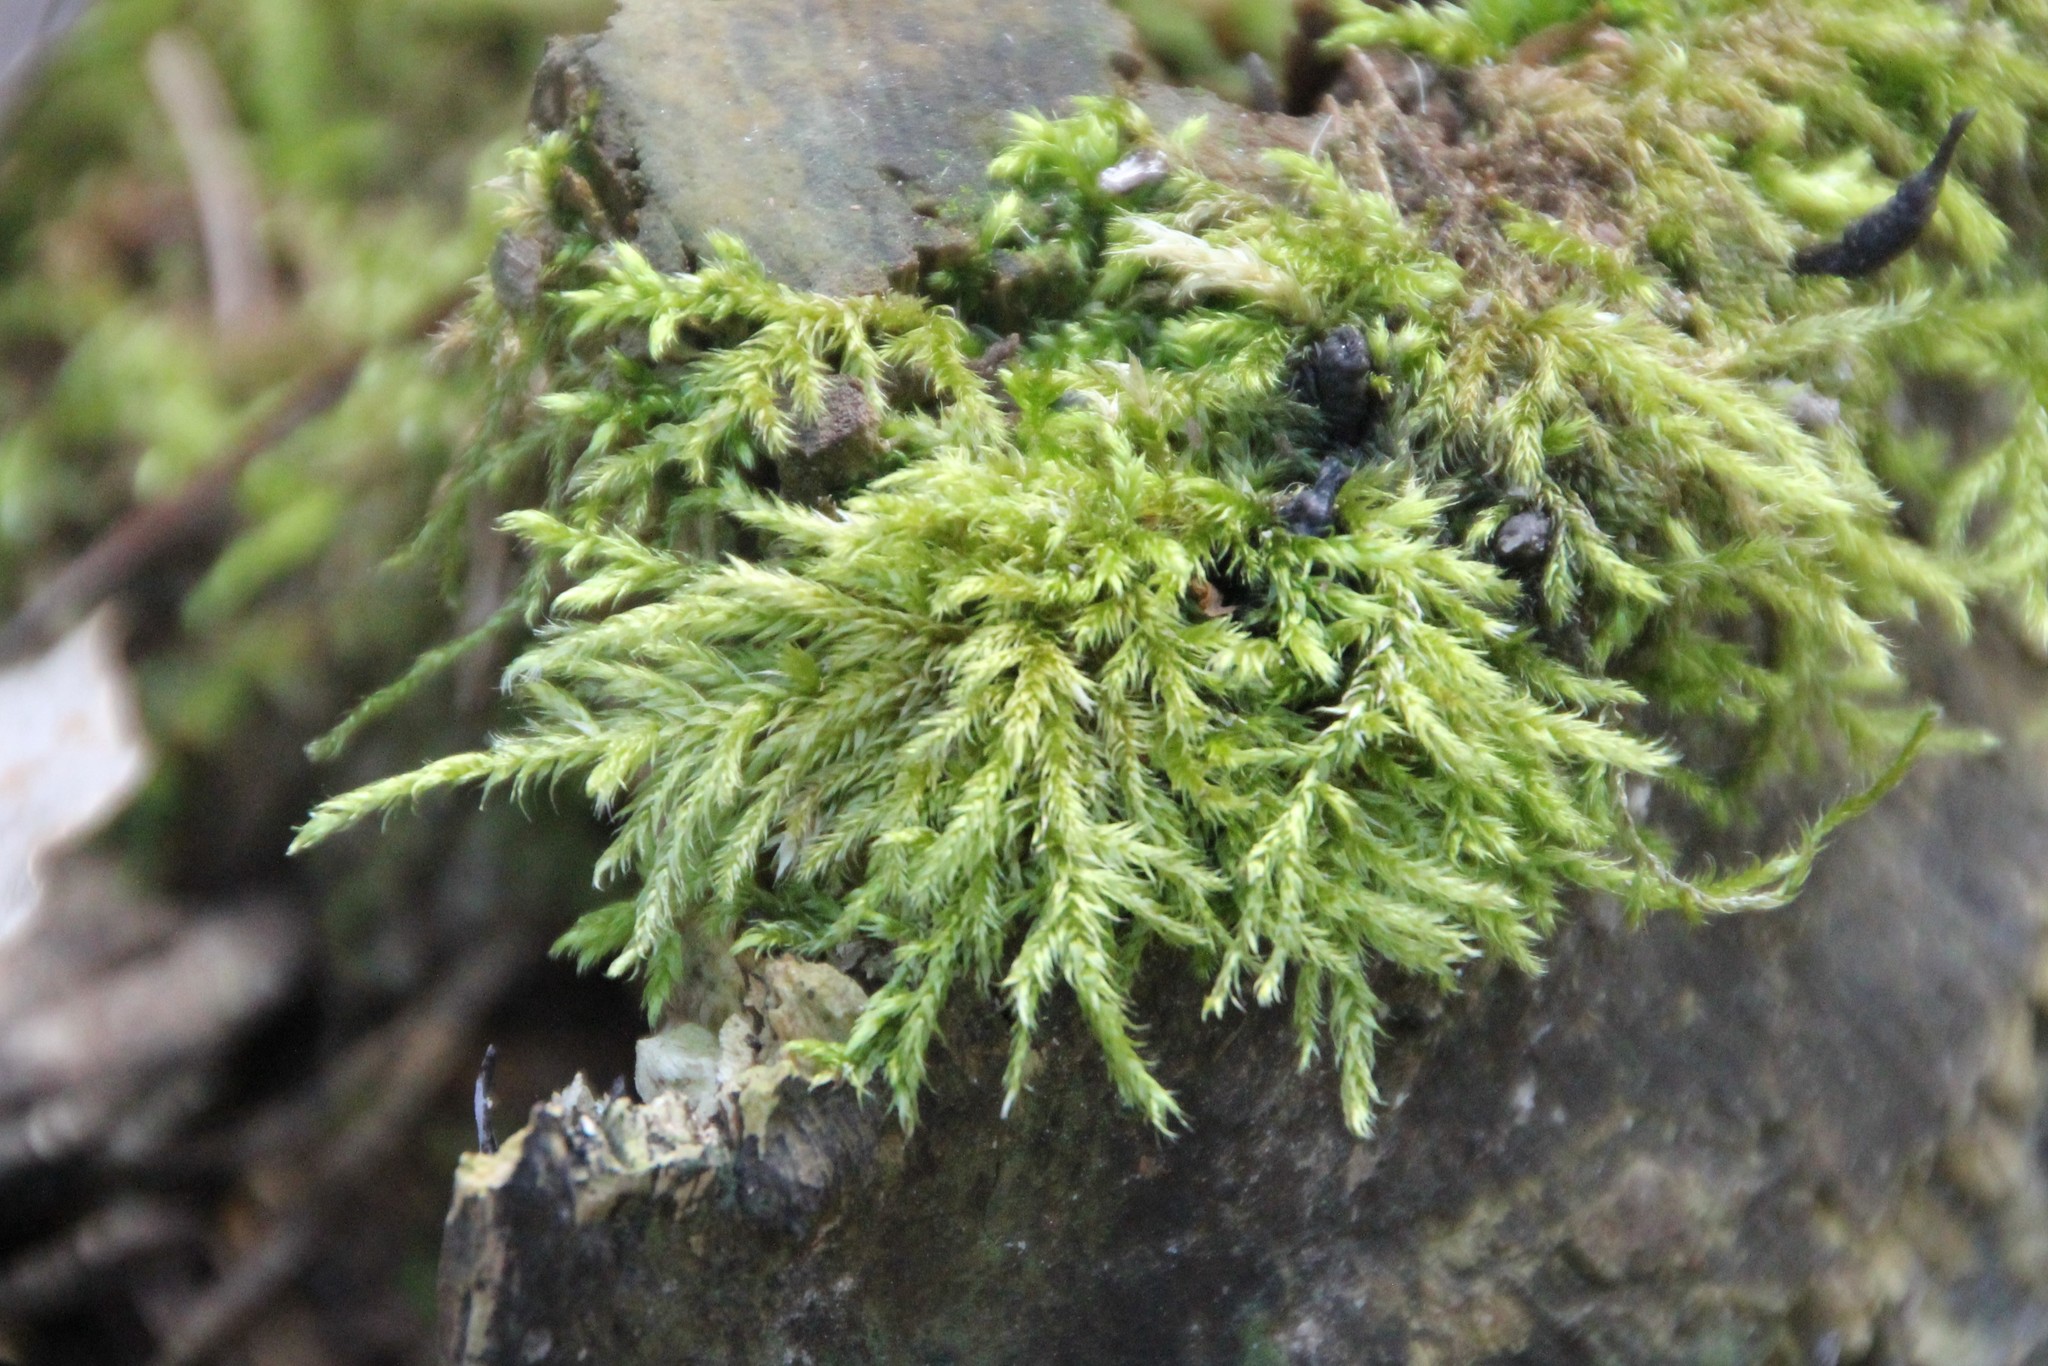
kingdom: Plantae
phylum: Bryophyta
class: Bryopsida
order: Hypnales
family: Hypnaceae
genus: Hypnum
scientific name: Hypnum cupressiforme
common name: Cypress-leaved plait-moss
